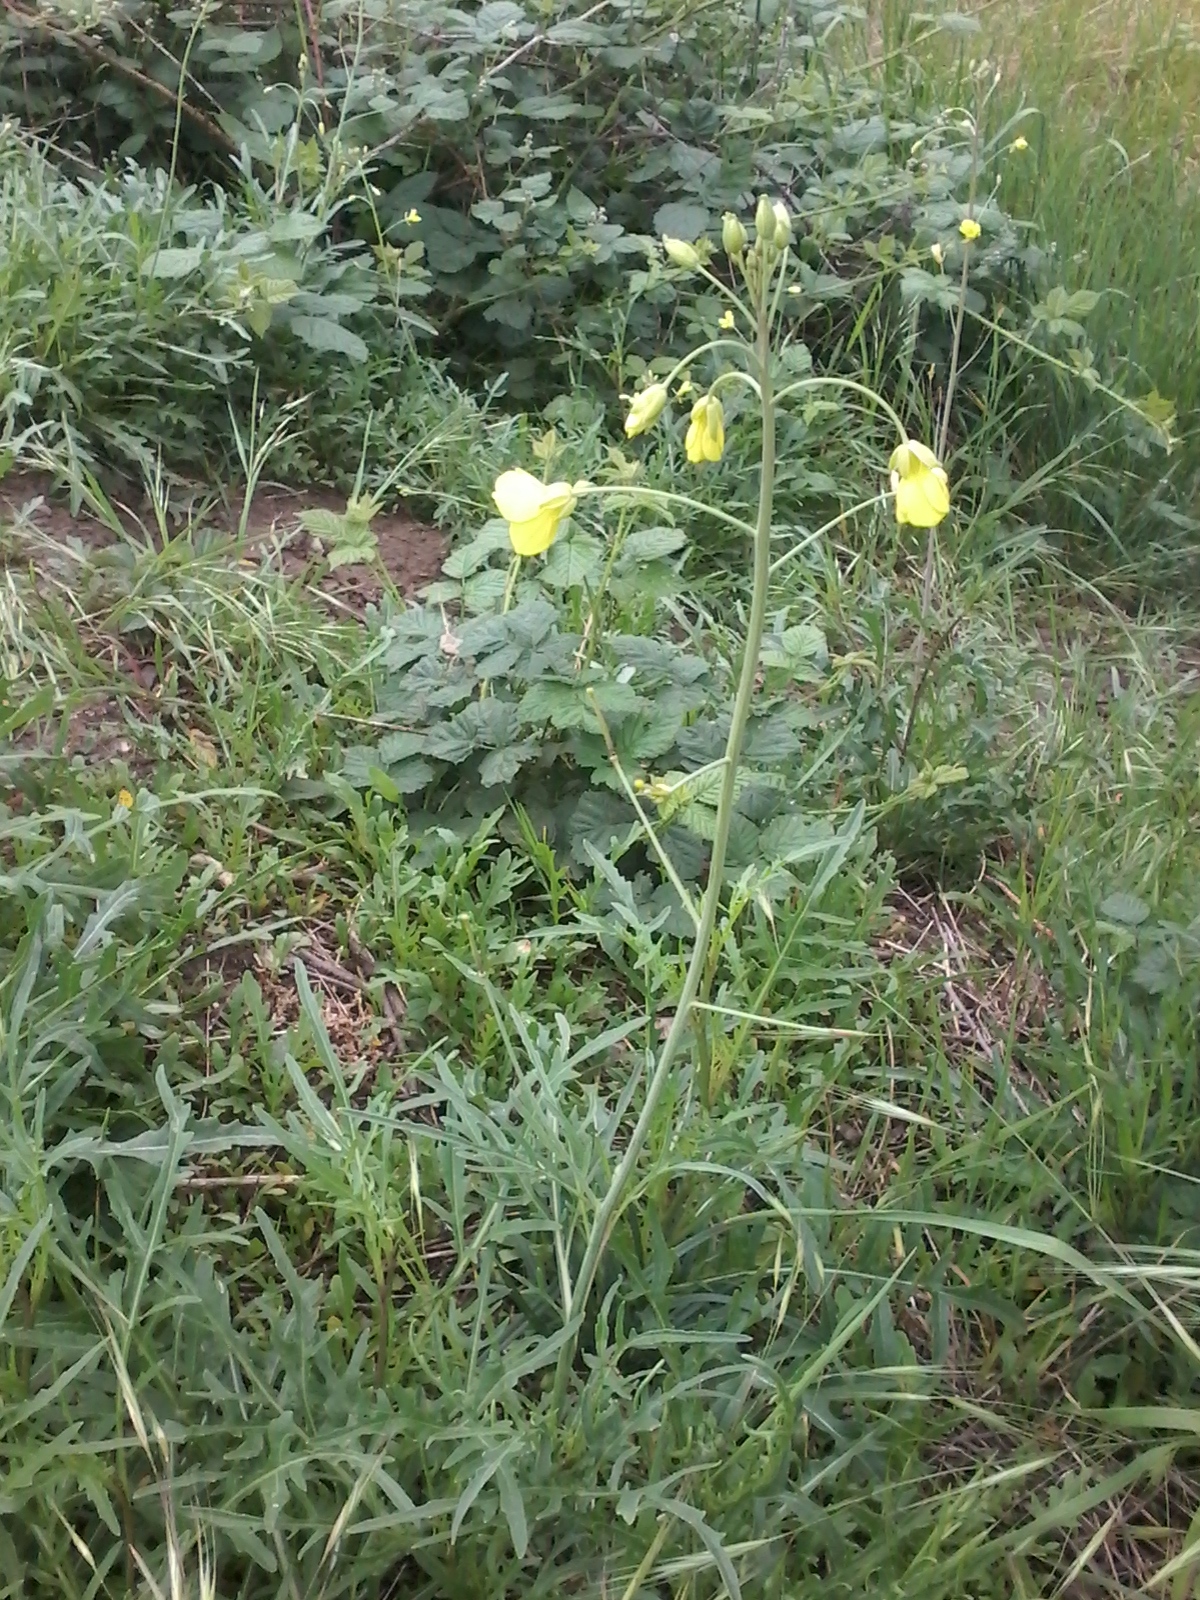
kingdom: Plantae
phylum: Tracheophyta
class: Magnoliopsida
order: Brassicales
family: Brassicaceae
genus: Diplotaxis
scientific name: Diplotaxis tenuifolia
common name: Perennial wall-rocket
